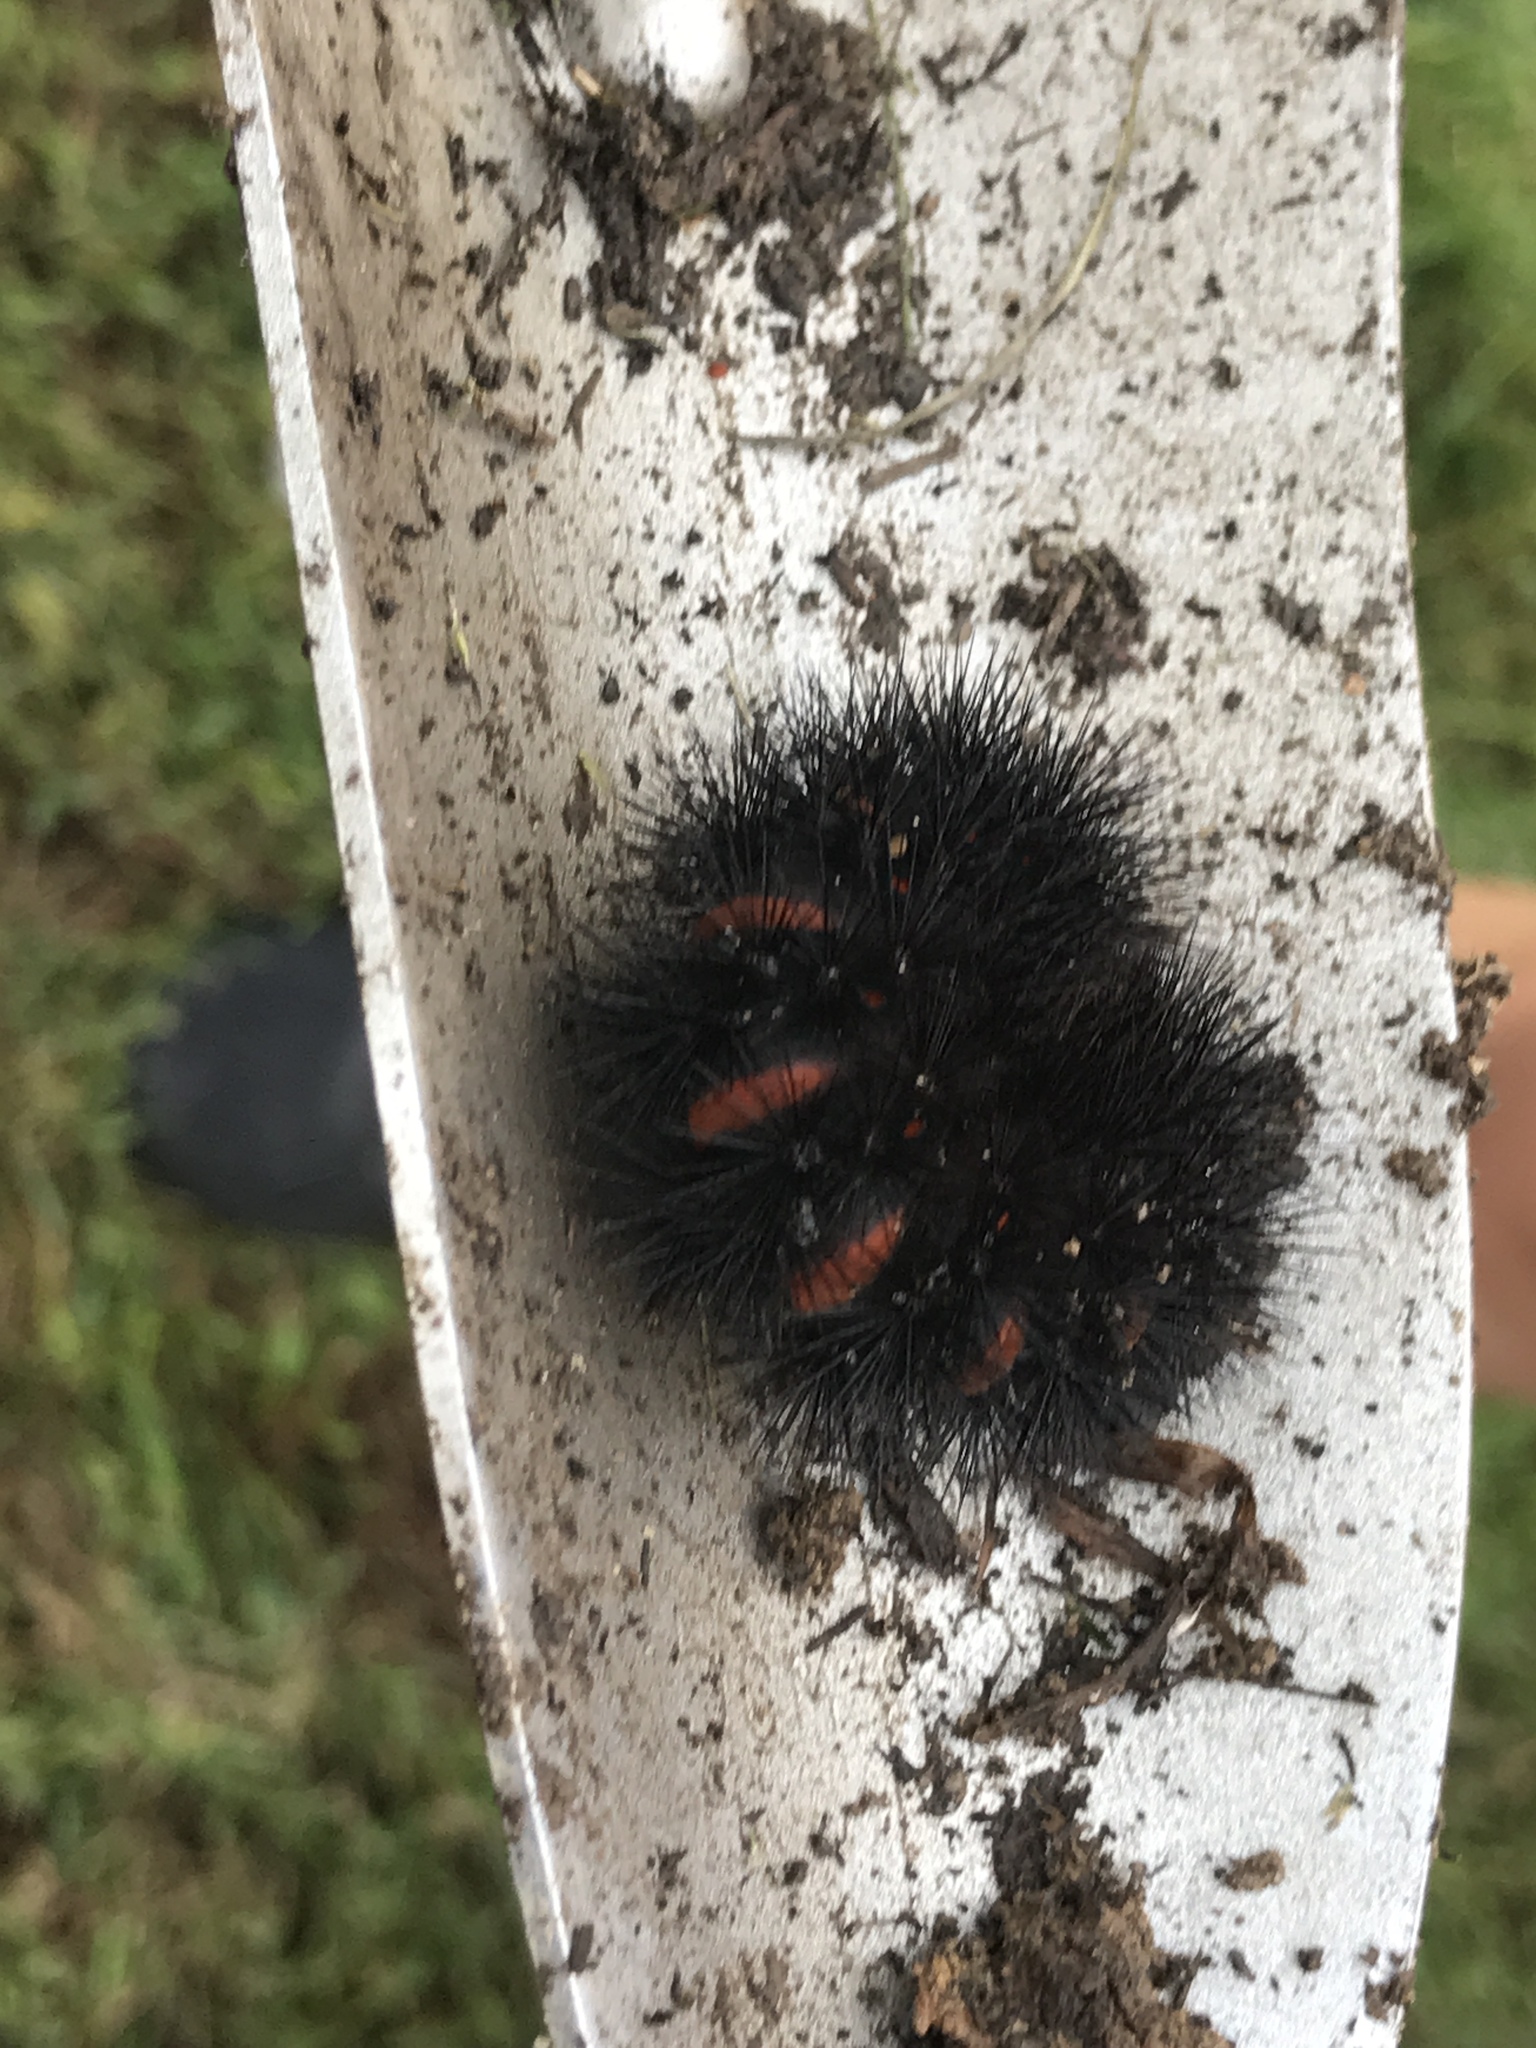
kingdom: Animalia
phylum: Arthropoda
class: Insecta
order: Lepidoptera
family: Erebidae
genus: Hypercompe
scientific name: Hypercompe scribonia
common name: Giant leopard moth
